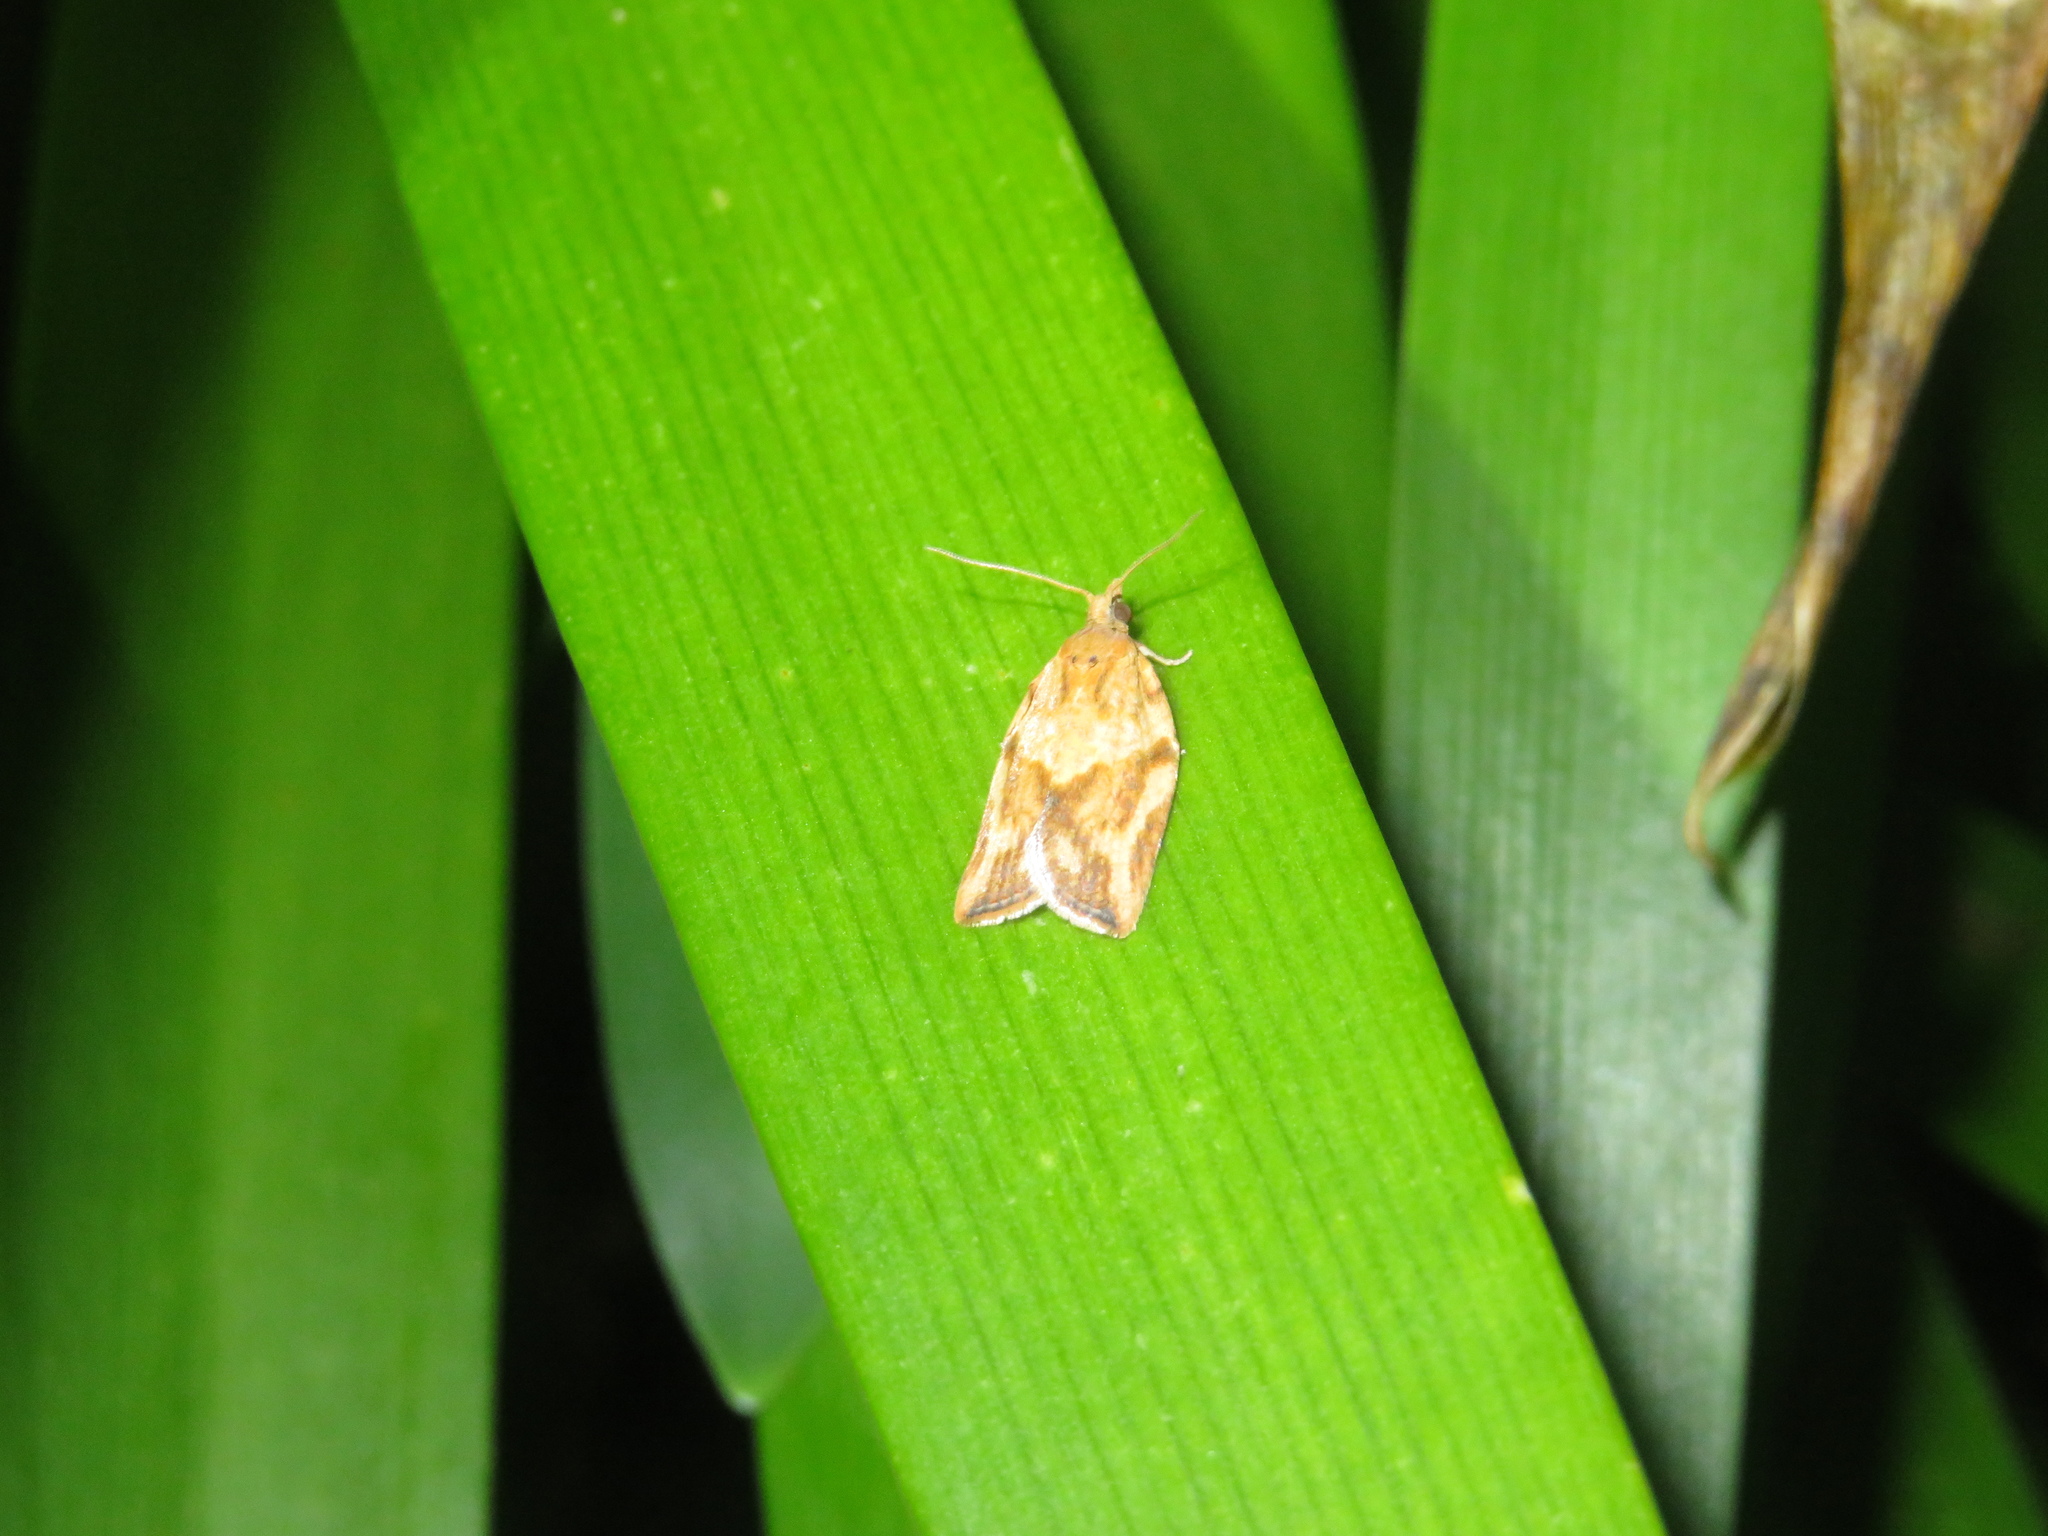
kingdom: Animalia
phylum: Arthropoda
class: Insecta
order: Lepidoptera
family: Tortricidae
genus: Epiphyas
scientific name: Epiphyas postvittana
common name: Light brown apple moth
